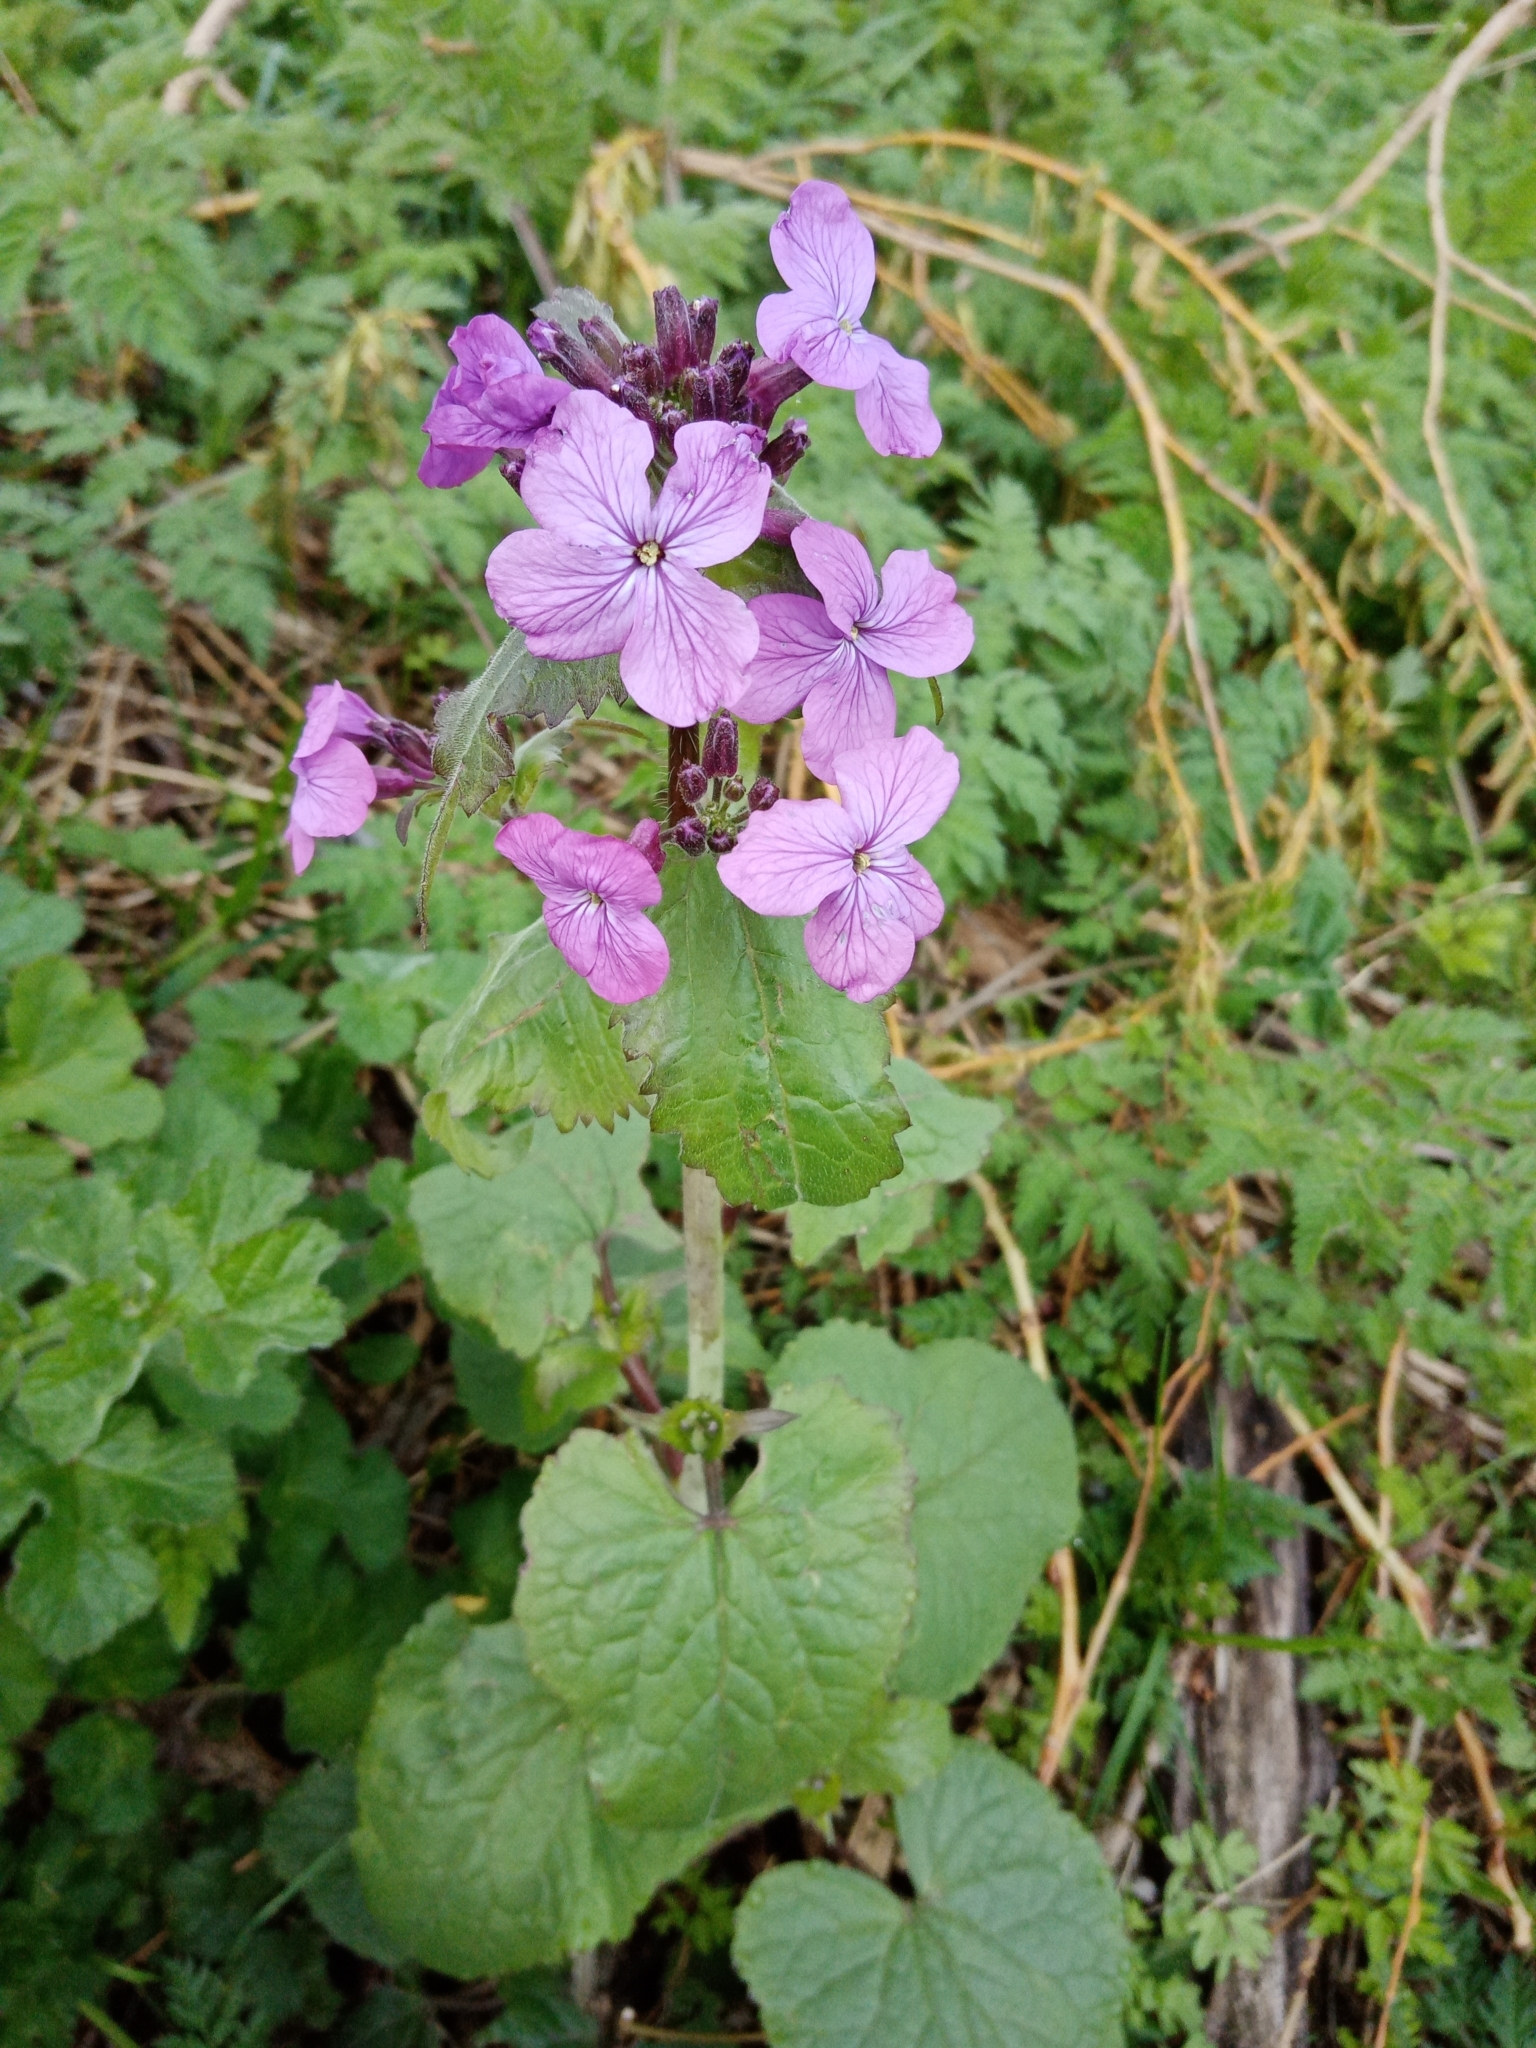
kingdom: Plantae
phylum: Tracheophyta
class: Magnoliopsida
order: Brassicales
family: Brassicaceae
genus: Lunaria
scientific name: Lunaria annua
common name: Honesty
